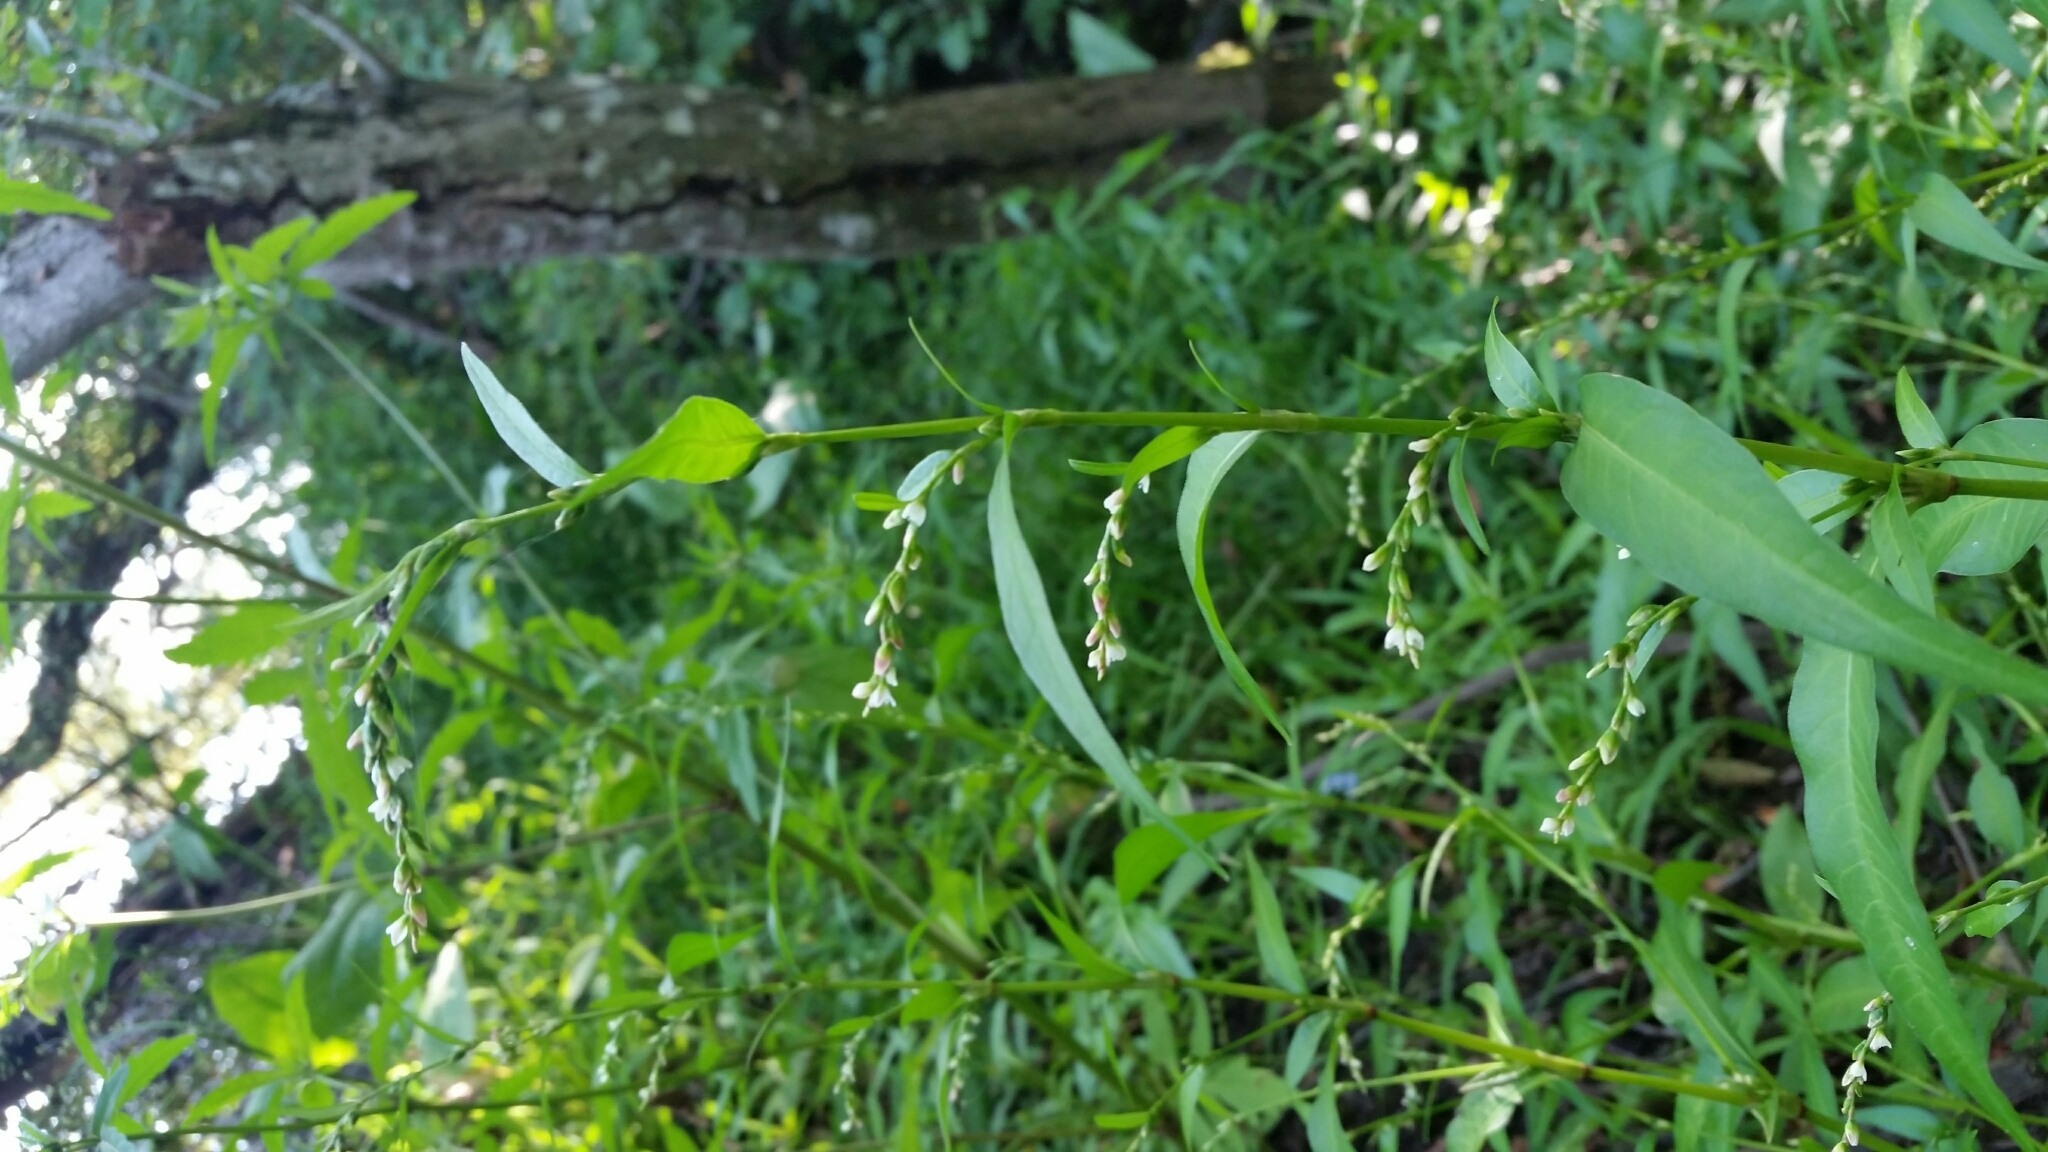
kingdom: Plantae
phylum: Tracheophyta
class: Magnoliopsida
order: Caryophyllales
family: Polygonaceae
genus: Persicaria
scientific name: Persicaria hydropiper
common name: Water-pepper
